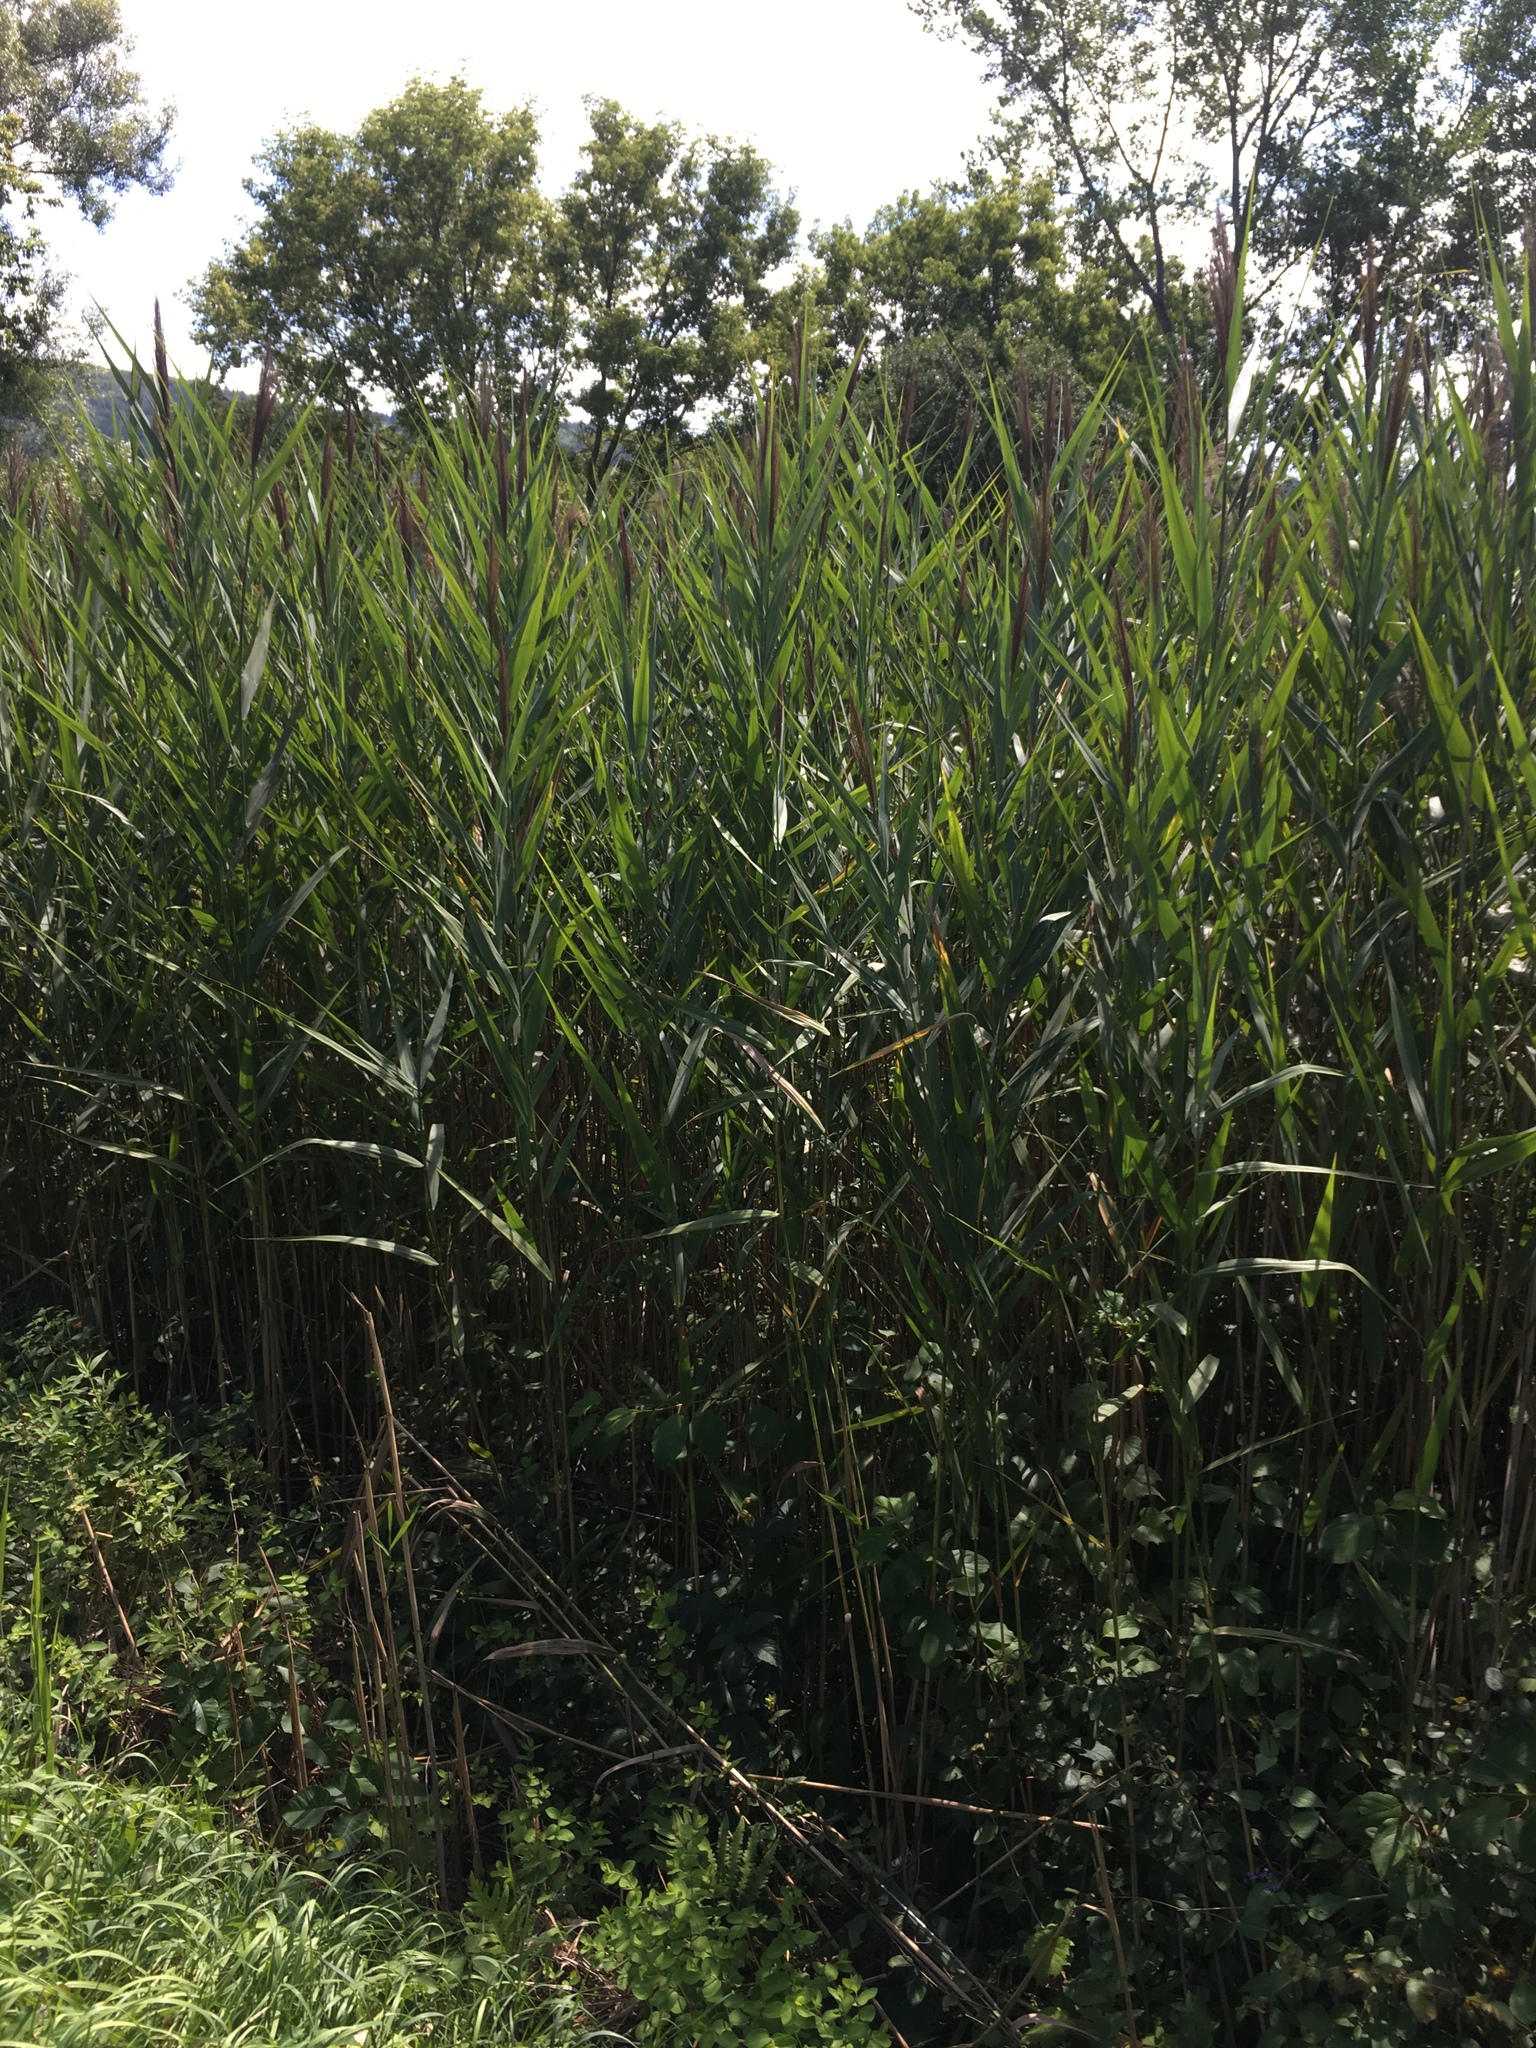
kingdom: Plantae
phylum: Tracheophyta
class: Liliopsida
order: Poales
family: Poaceae
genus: Phragmites
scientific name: Phragmites australis
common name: Common reed
